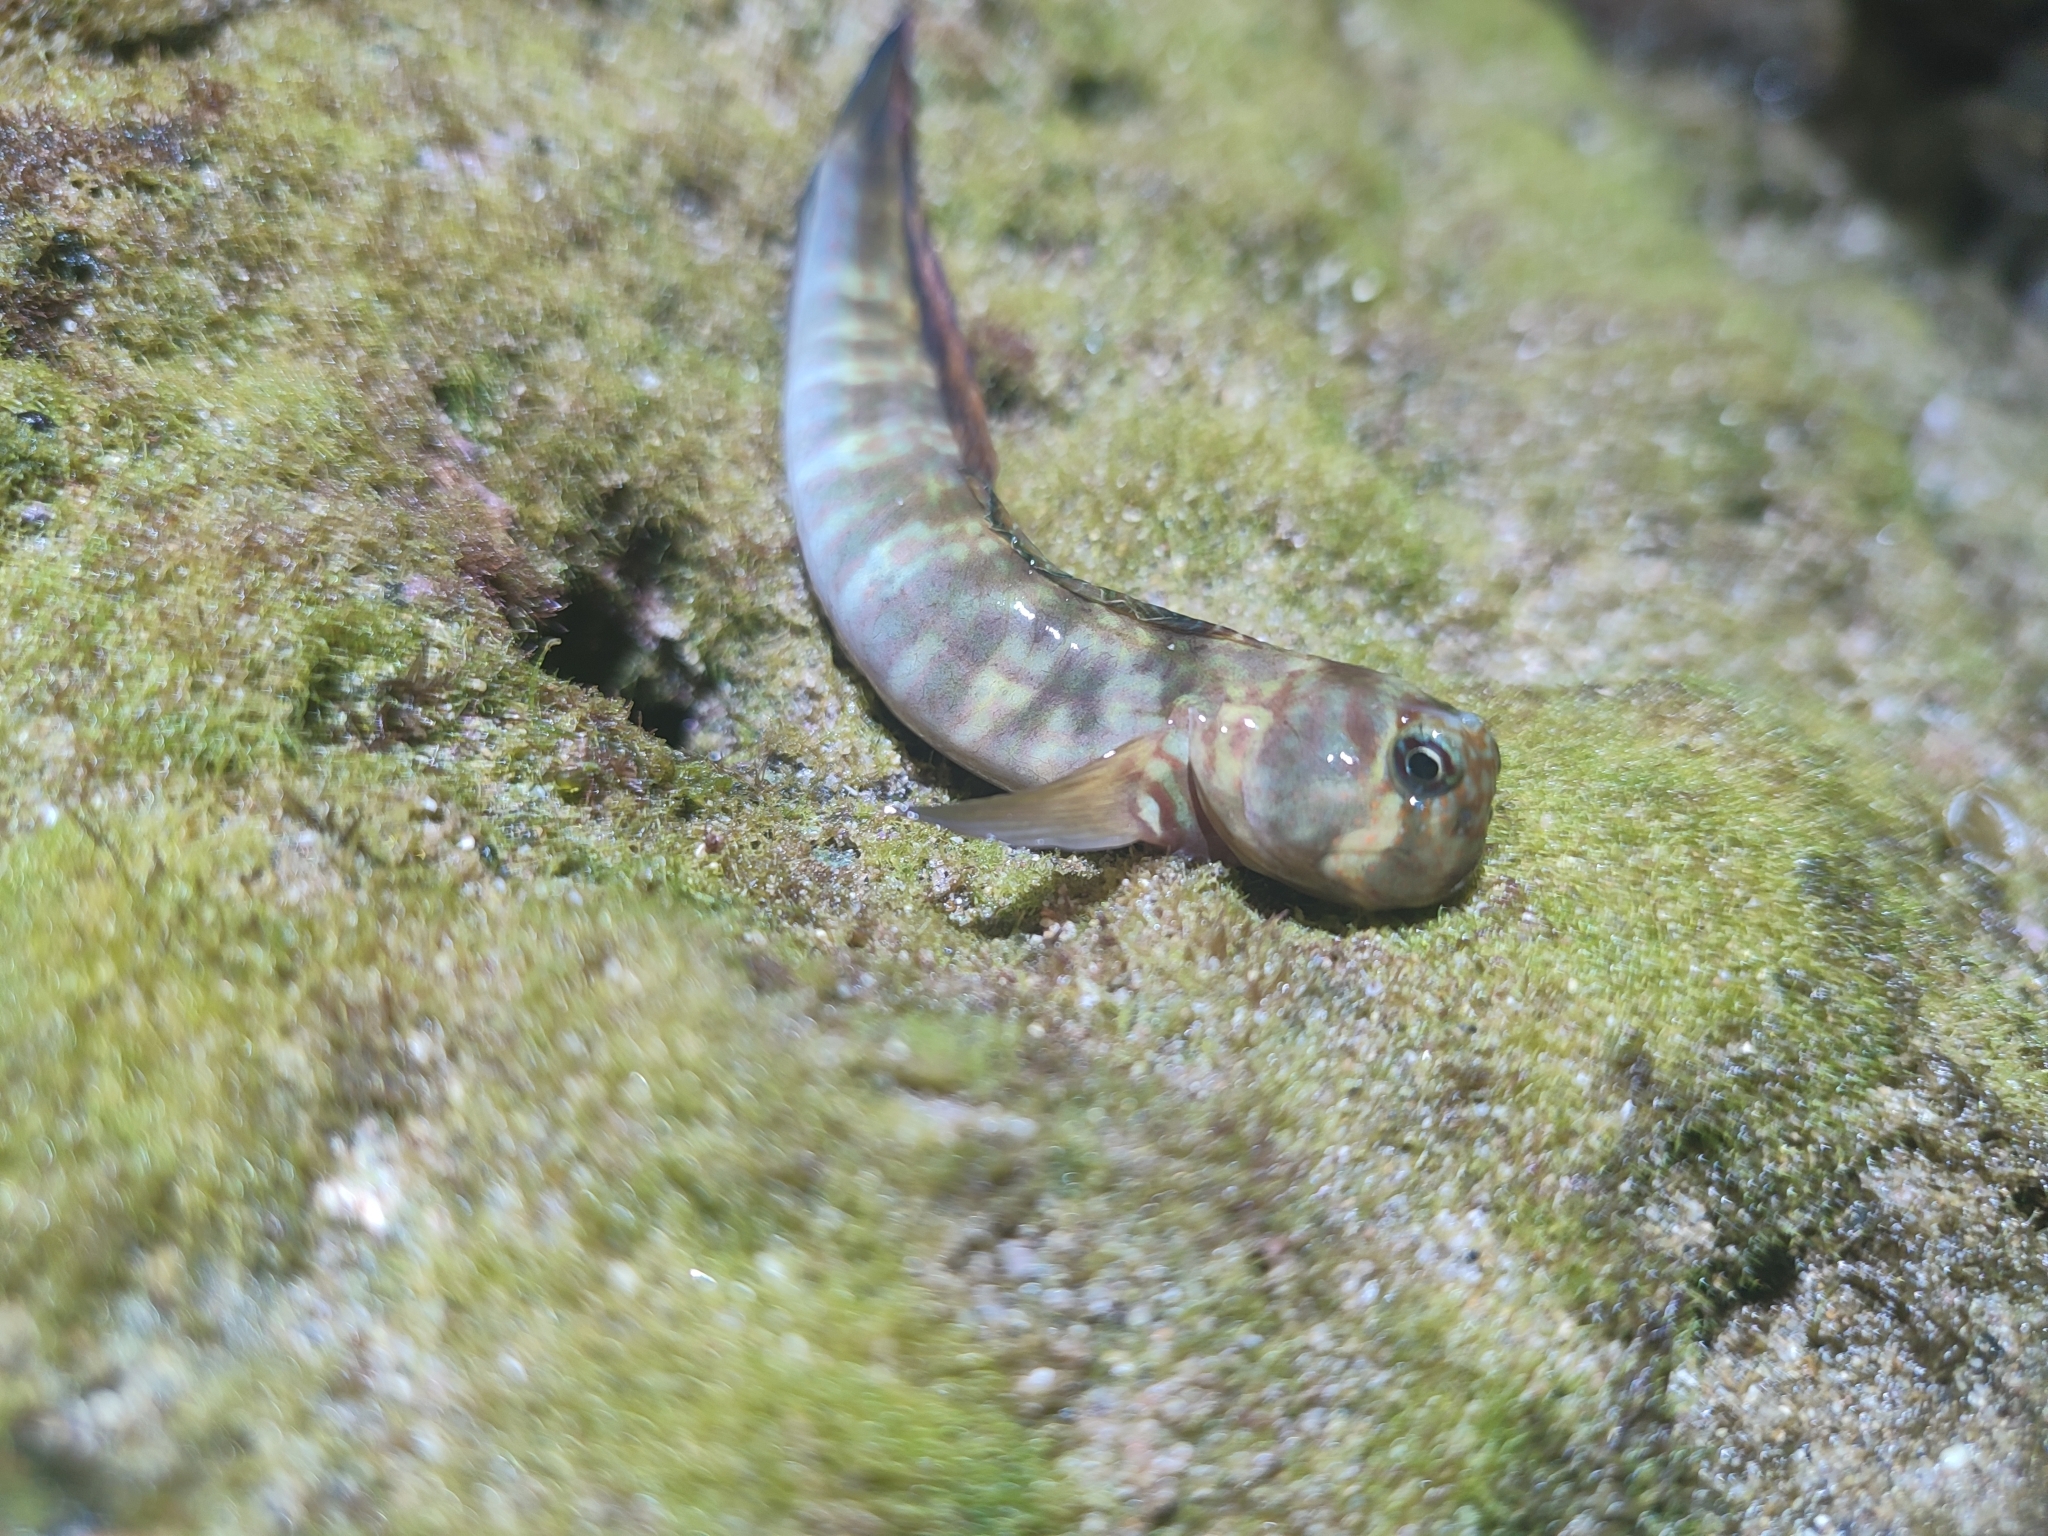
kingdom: Animalia
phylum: Chordata
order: Perciformes
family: Blenniidae
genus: Istiblennius
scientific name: Istiblennius dussumieri
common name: Dussumier's rockskipper
